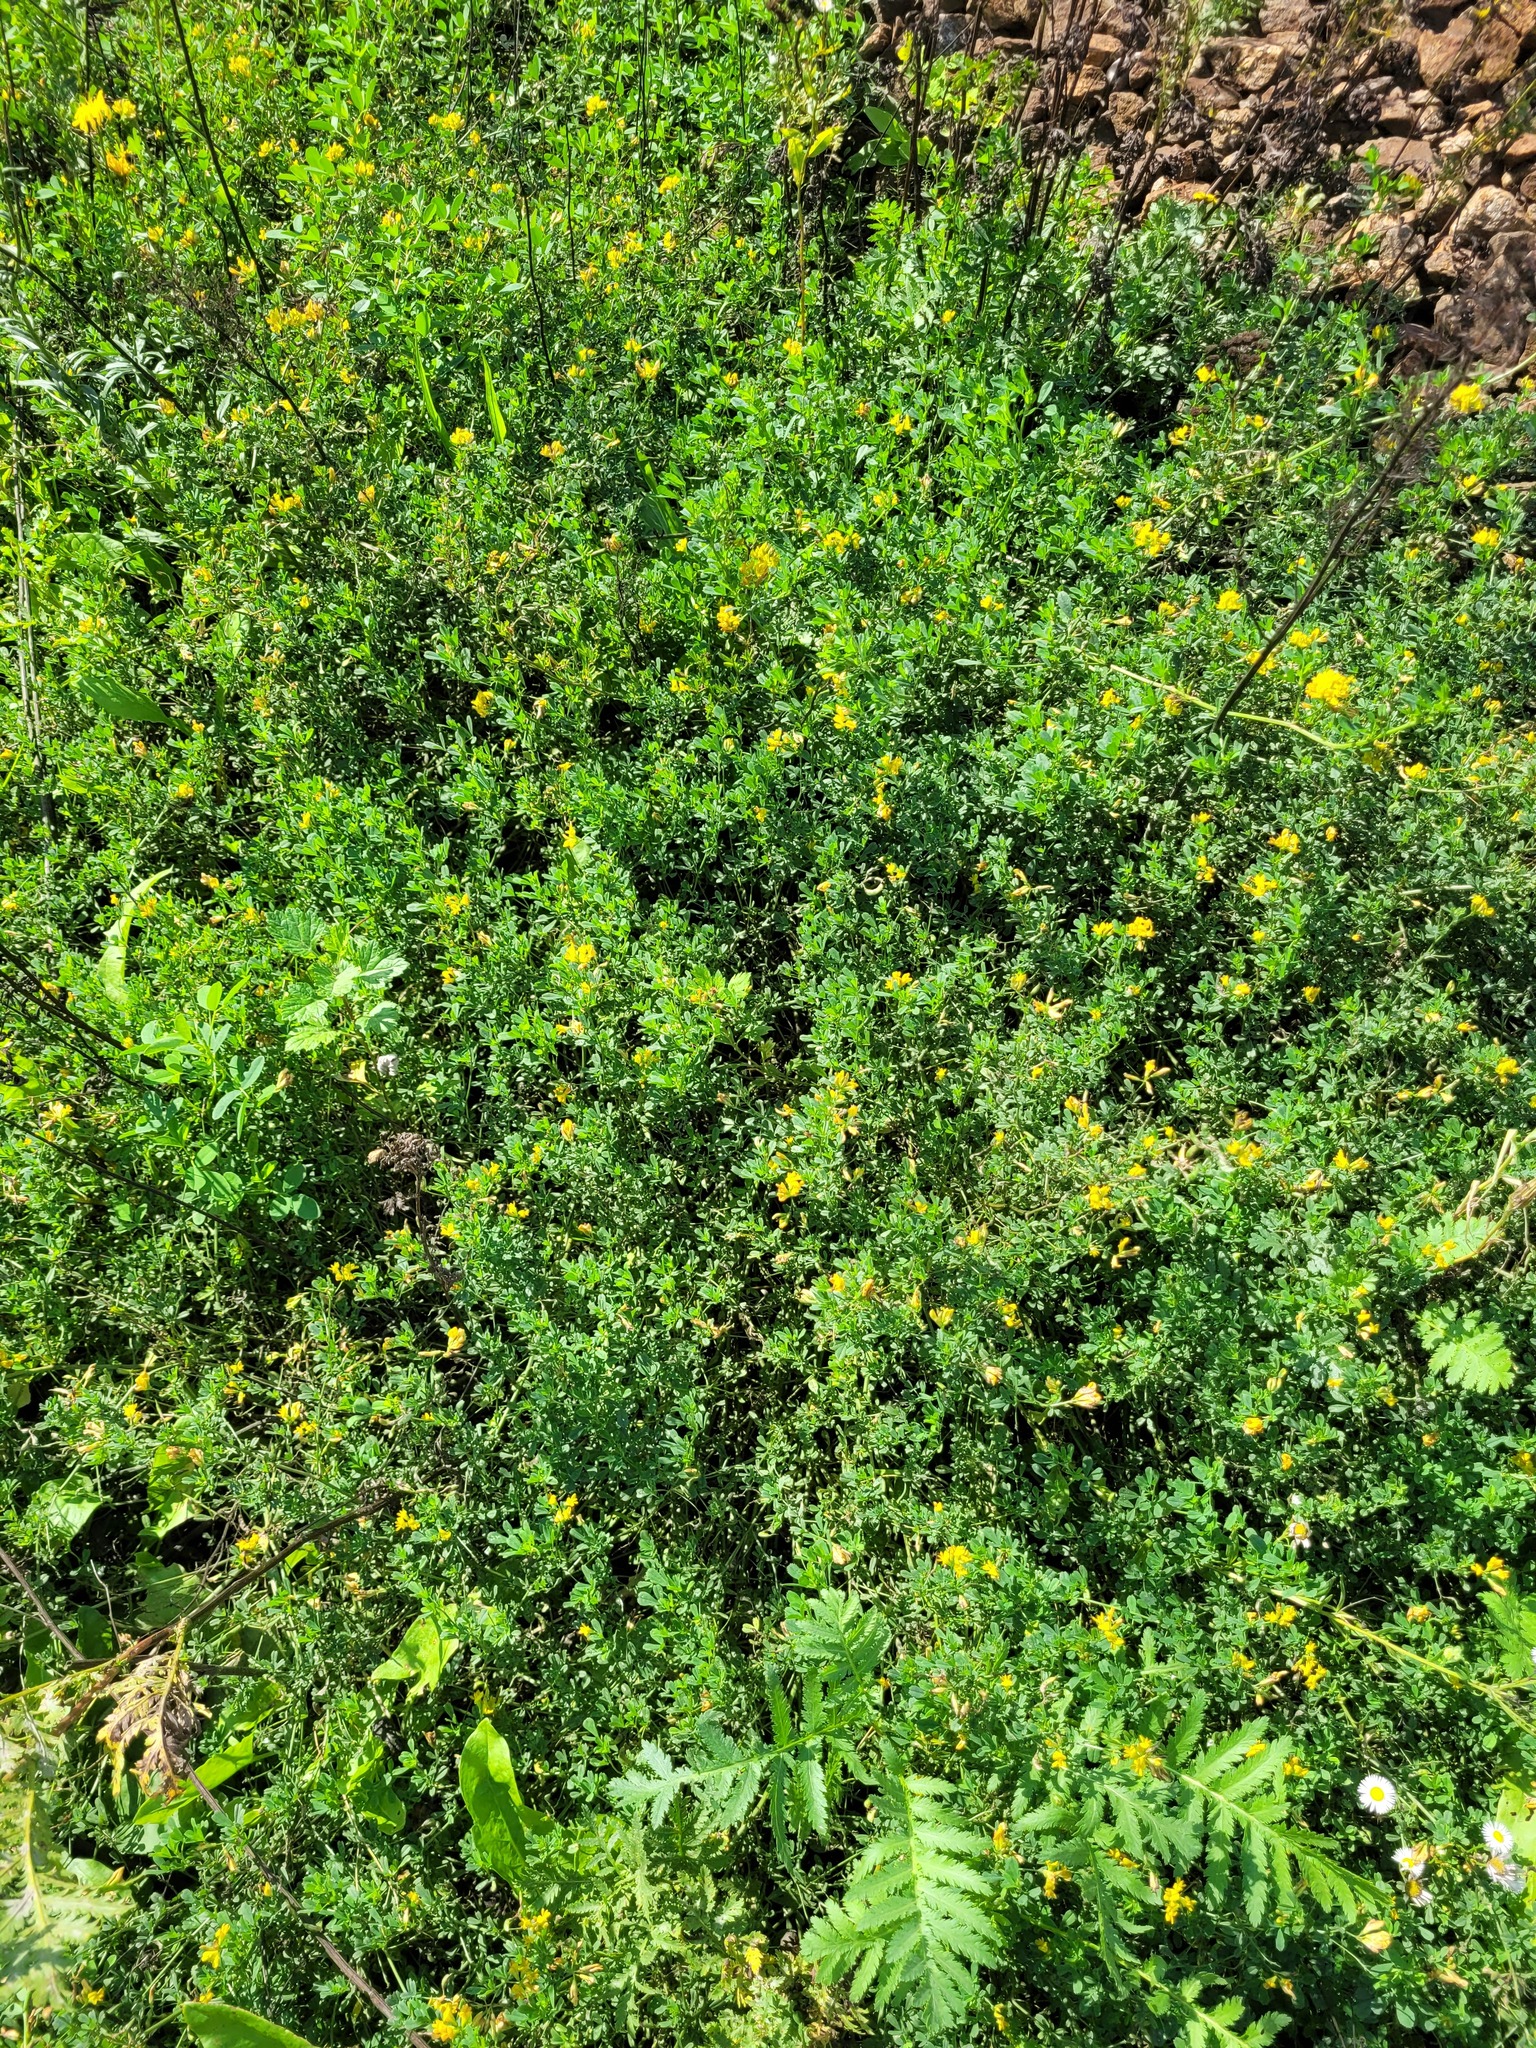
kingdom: Plantae
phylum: Tracheophyta
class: Magnoliopsida
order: Fabales
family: Fabaceae
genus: Medicago
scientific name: Medicago falcata
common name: Sickle medick
